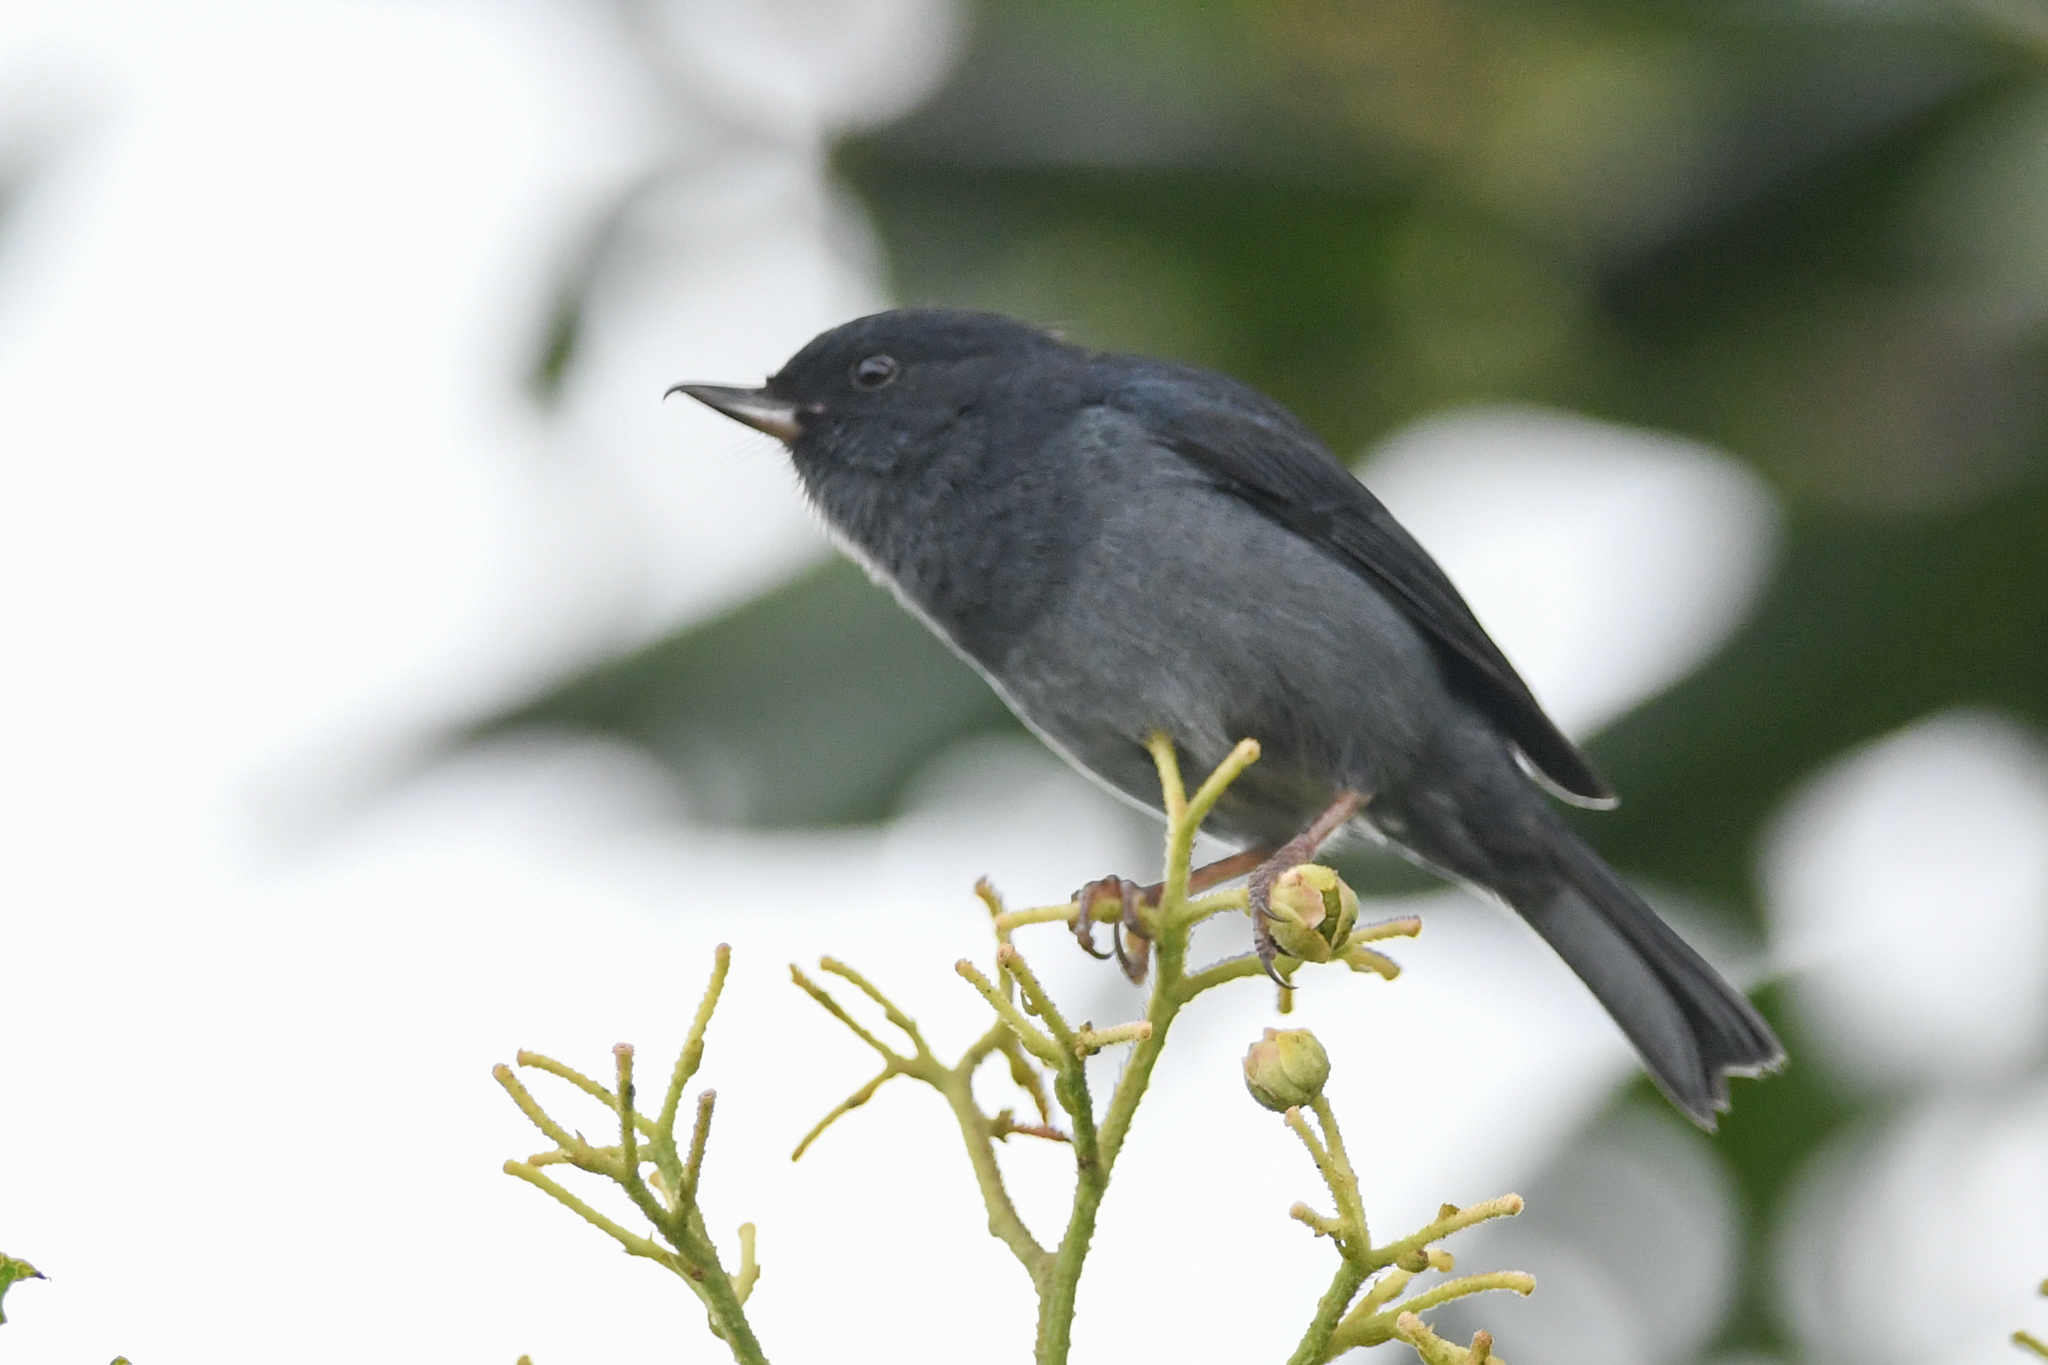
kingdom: Animalia
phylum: Chordata
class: Aves
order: Passeriformes
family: Thraupidae
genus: Diglossa
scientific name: Diglossa plumbea
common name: Slaty flowerpiercer
